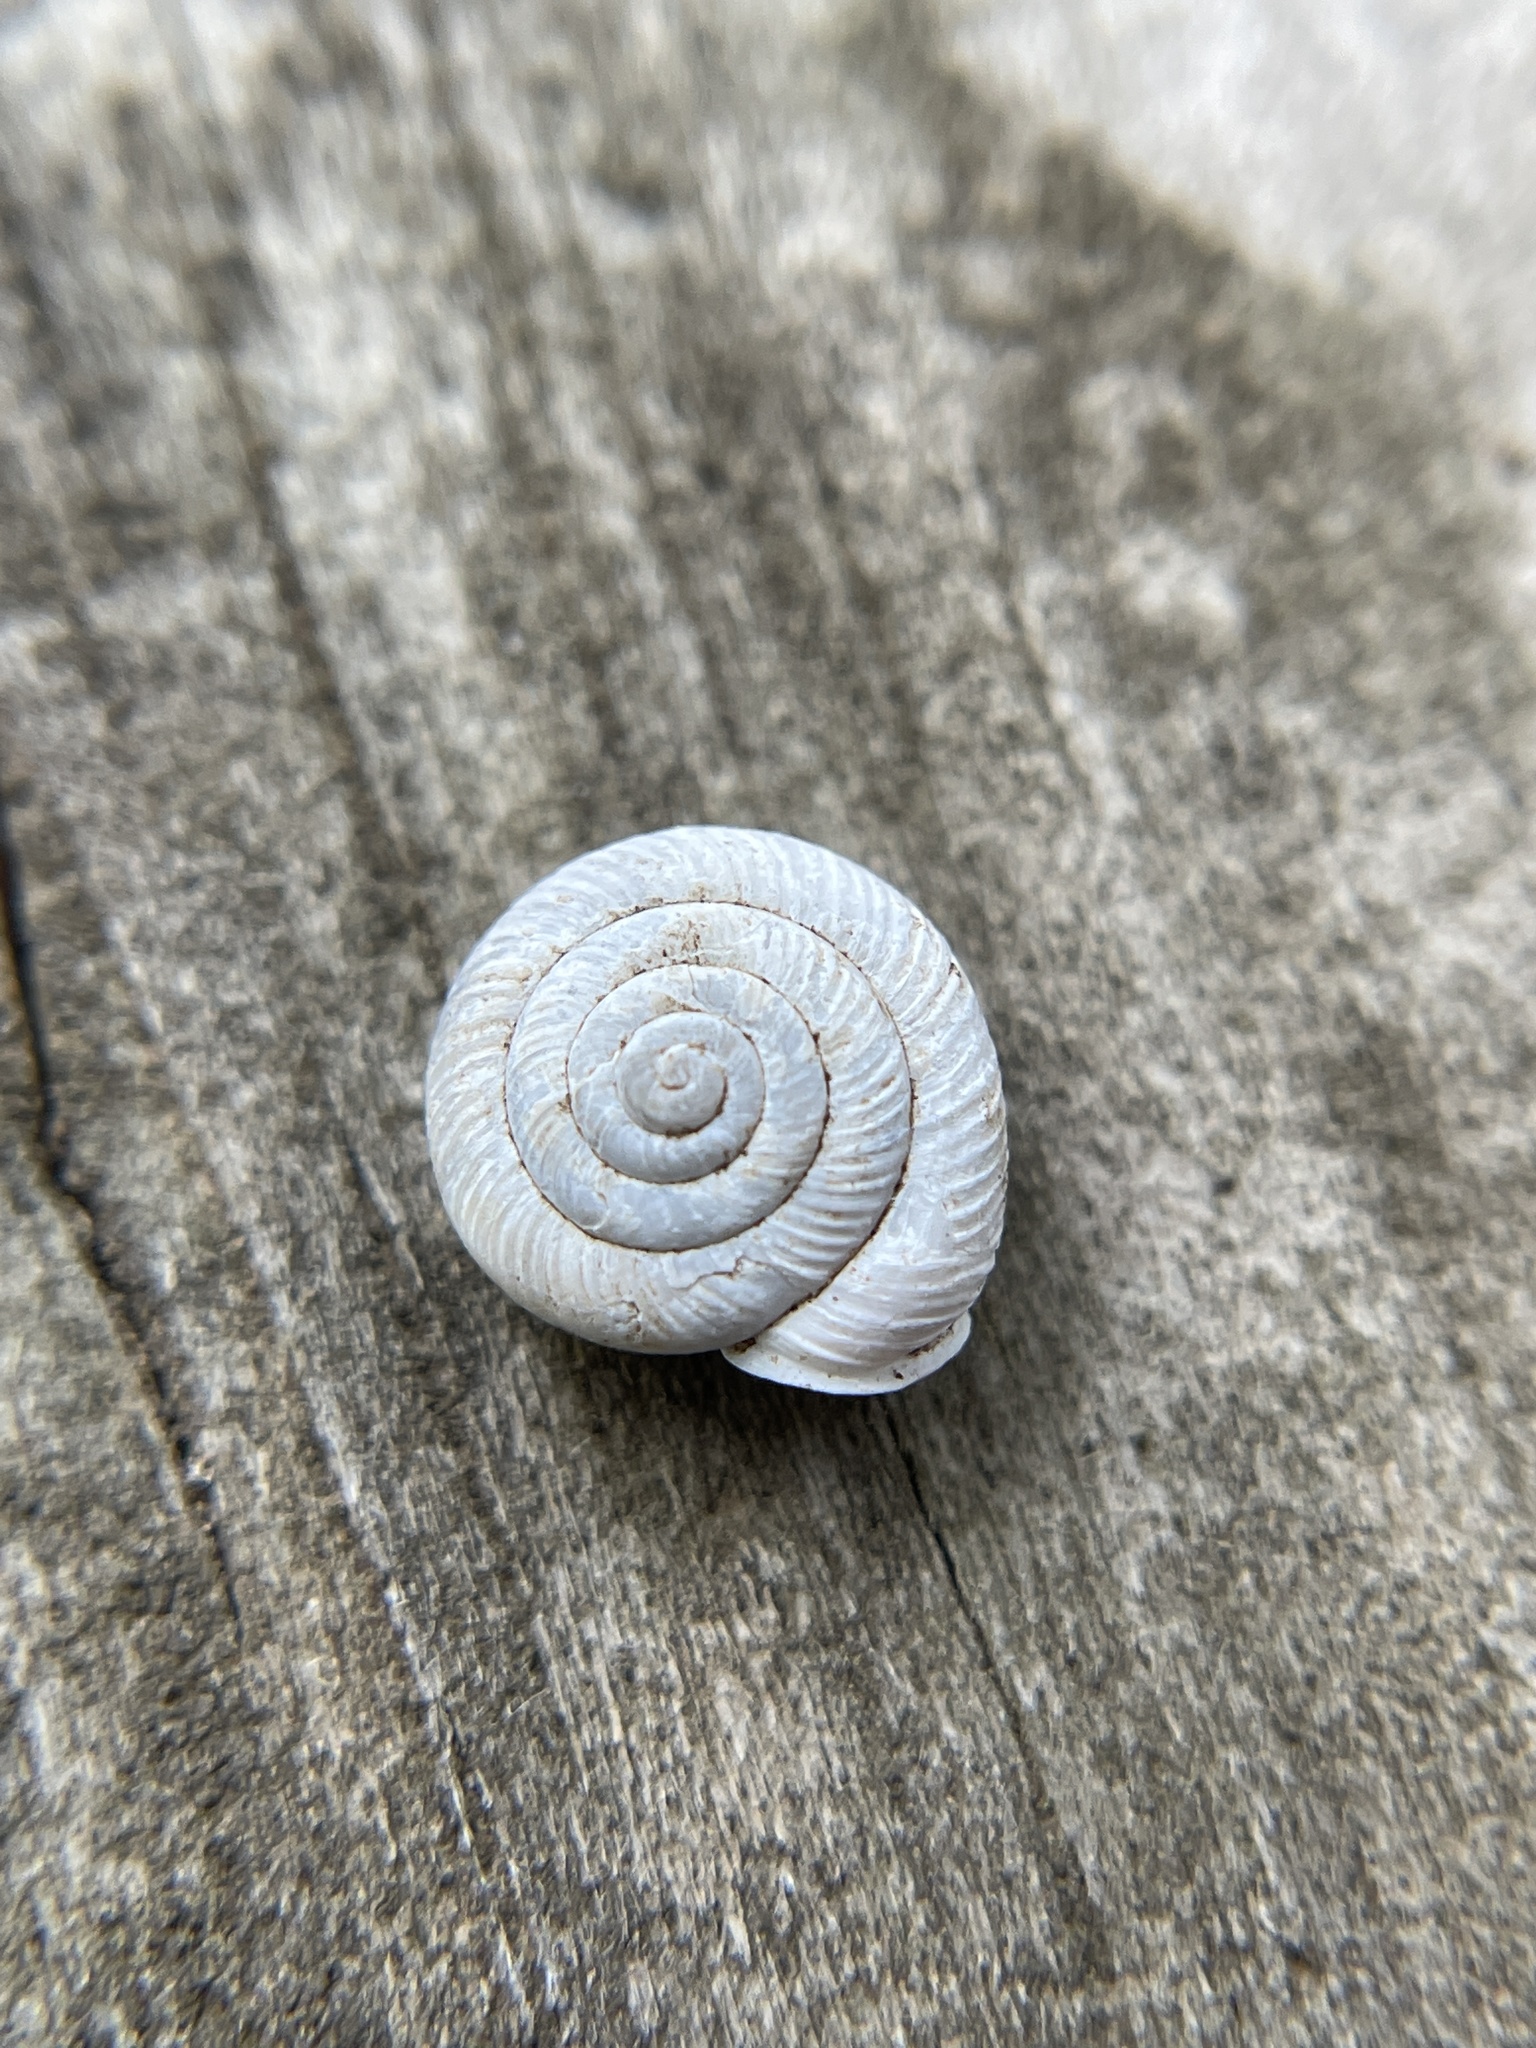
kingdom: Animalia
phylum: Mollusca
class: Gastropoda
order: Stylommatophora
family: Polygyridae
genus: Linisa
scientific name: Linisa texasiana
